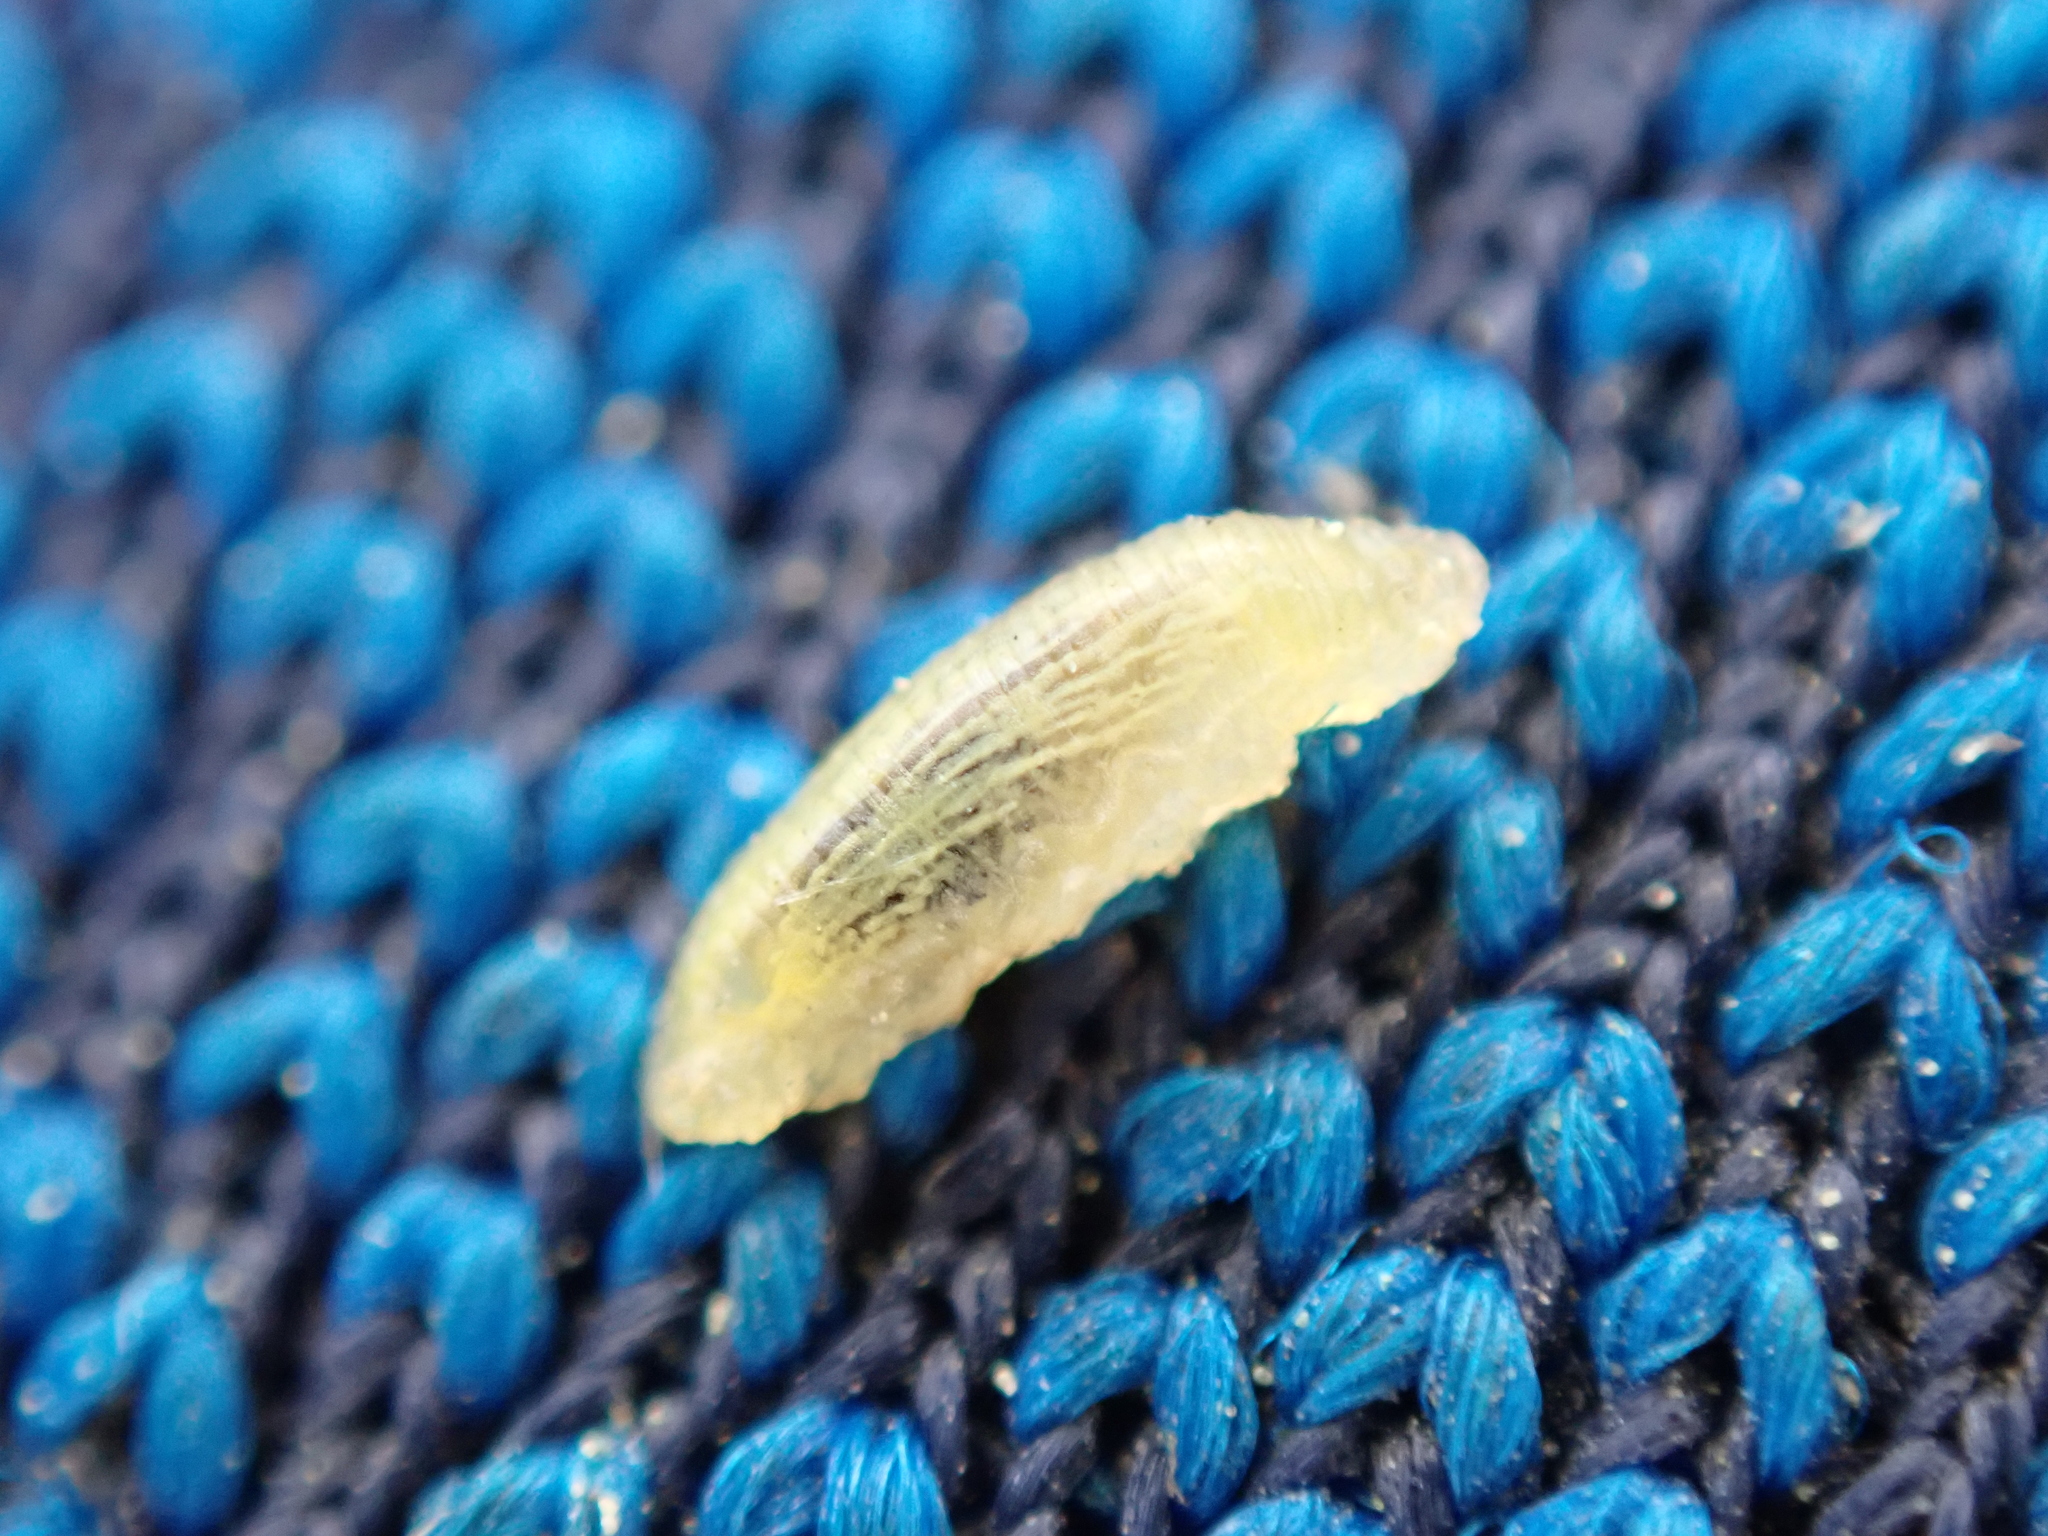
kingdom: Animalia
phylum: Arthropoda
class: Insecta
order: Diptera
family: Syrphidae
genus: Syrphus
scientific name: Syrphus
